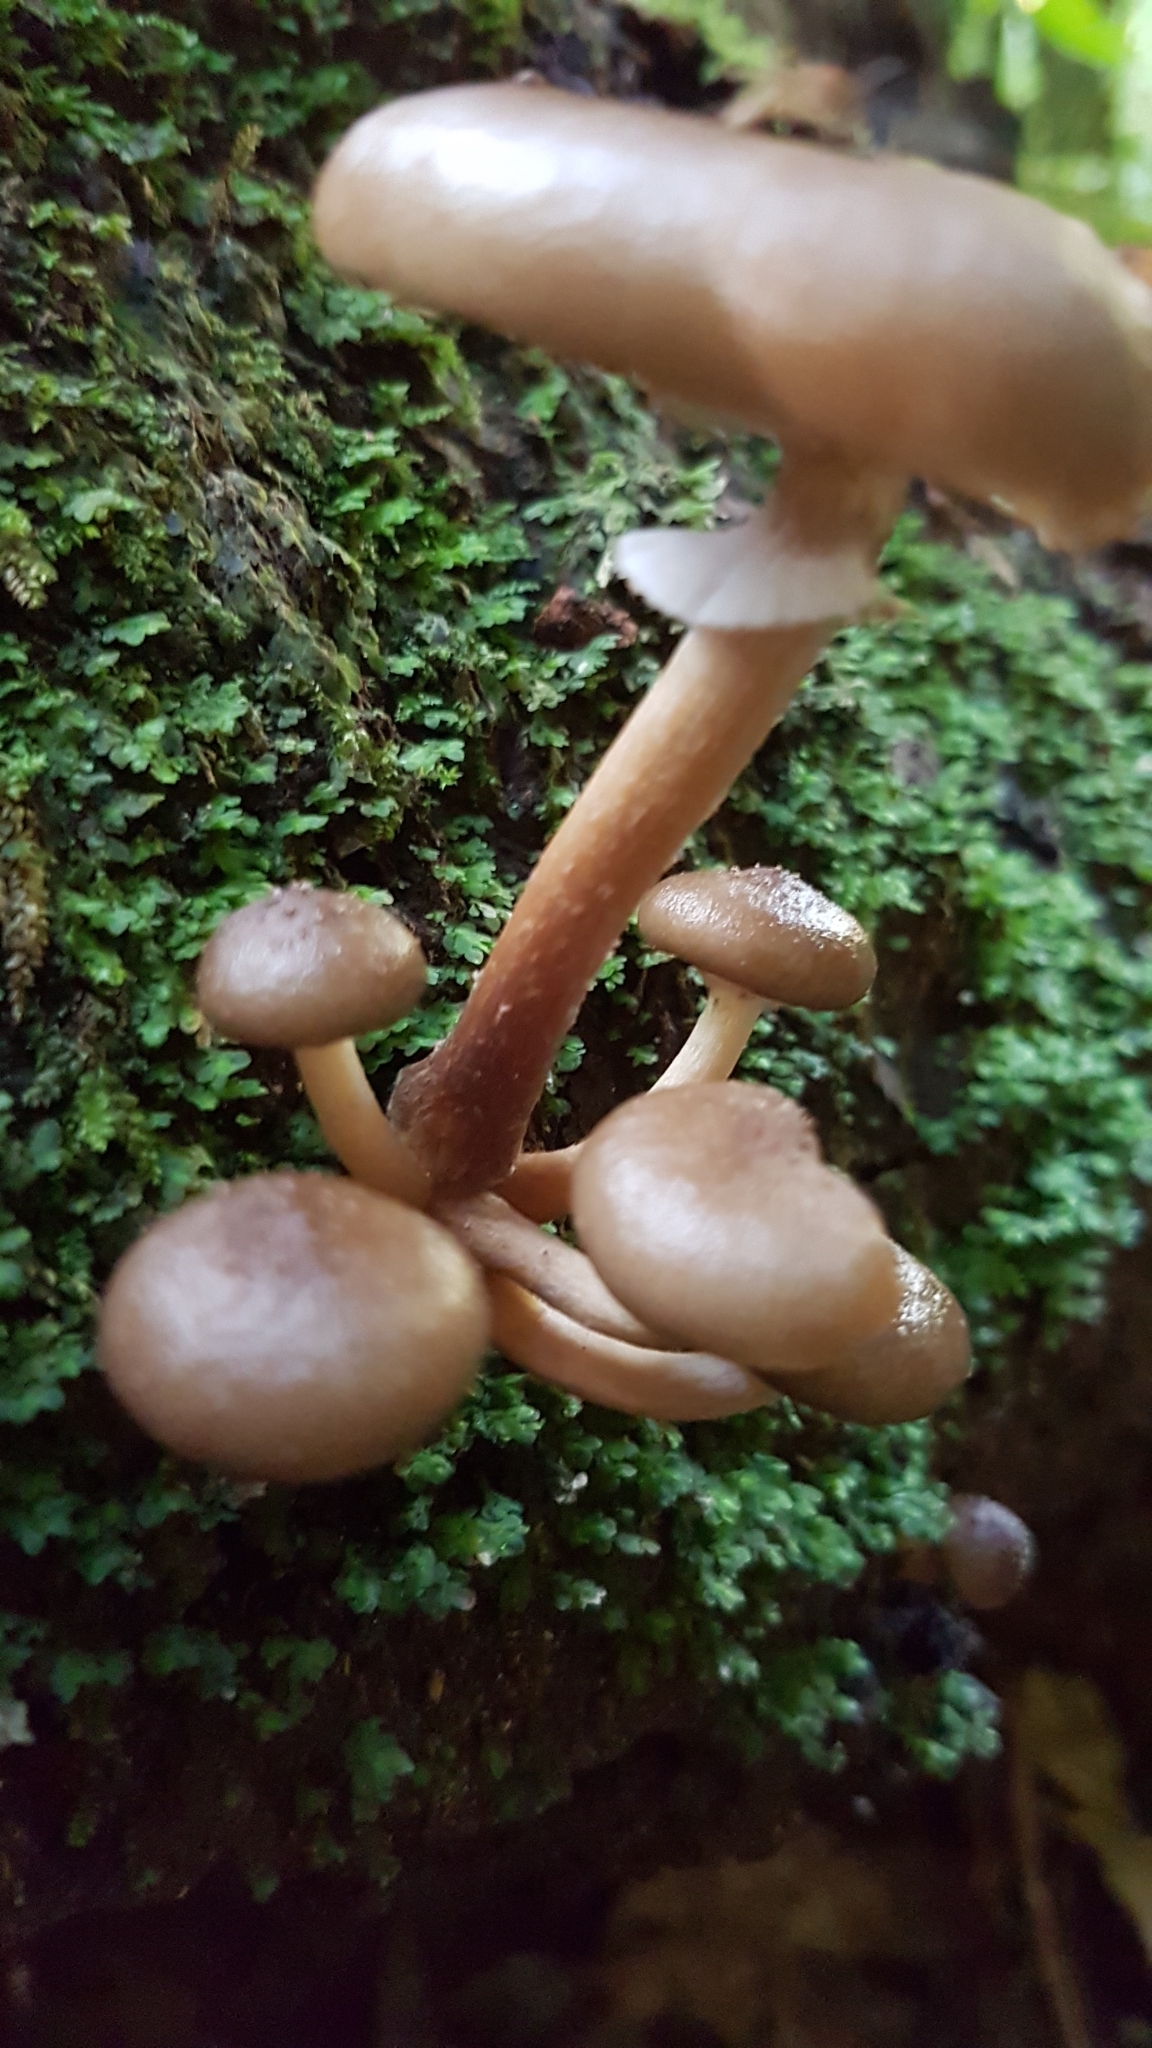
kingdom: Fungi
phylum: Basidiomycota
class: Agaricomycetes
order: Agaricales
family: Physalacriaceae
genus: Armillaria
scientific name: Armillaria novae-zelandiae
